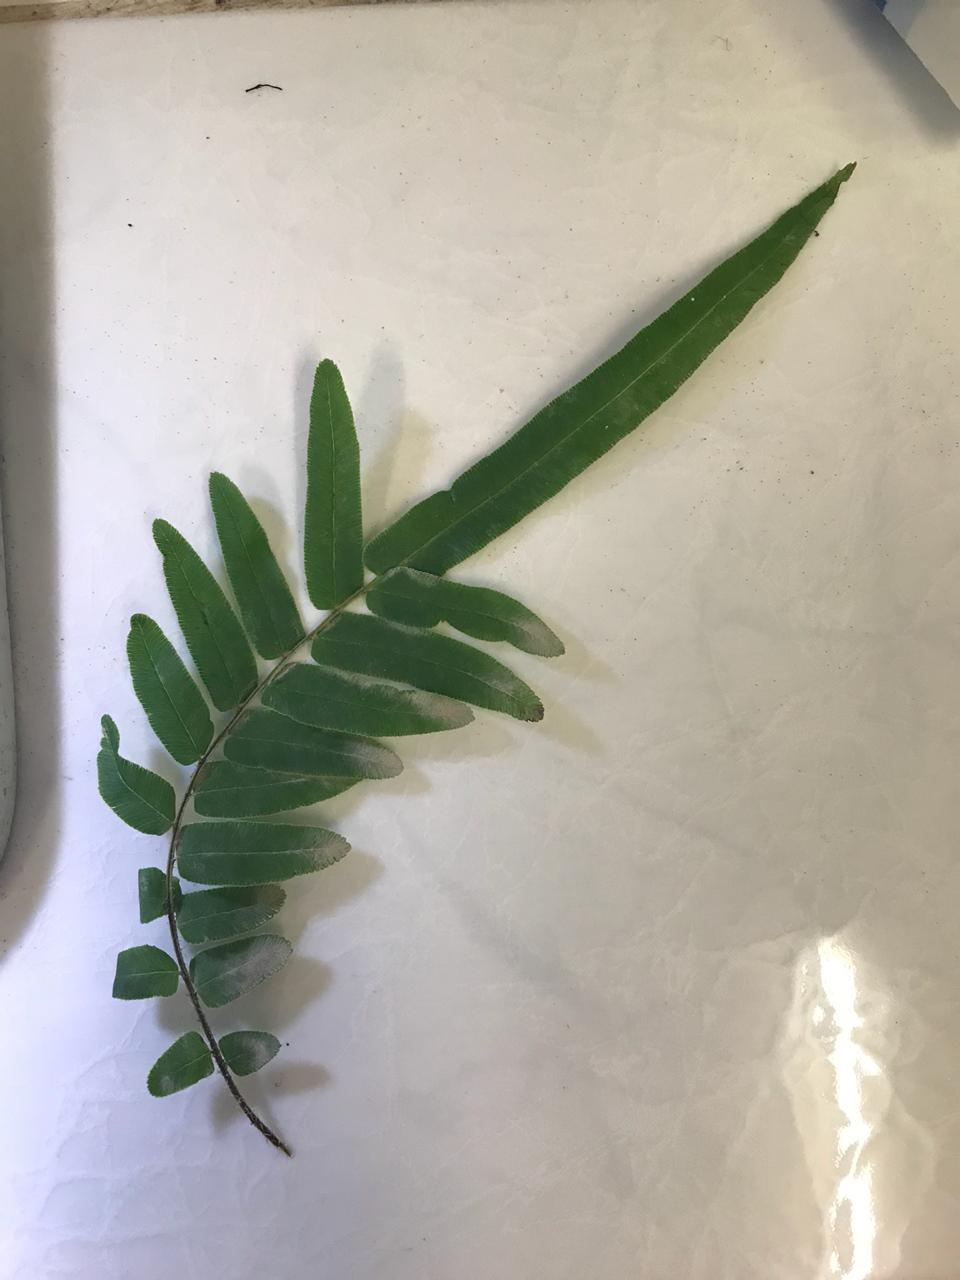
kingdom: Plantae
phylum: Tracheophyta
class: Polypodiopsida
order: Polypodiales
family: Pteridaceae
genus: Pteris
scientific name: Pteris vittata
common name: Ladder brake
